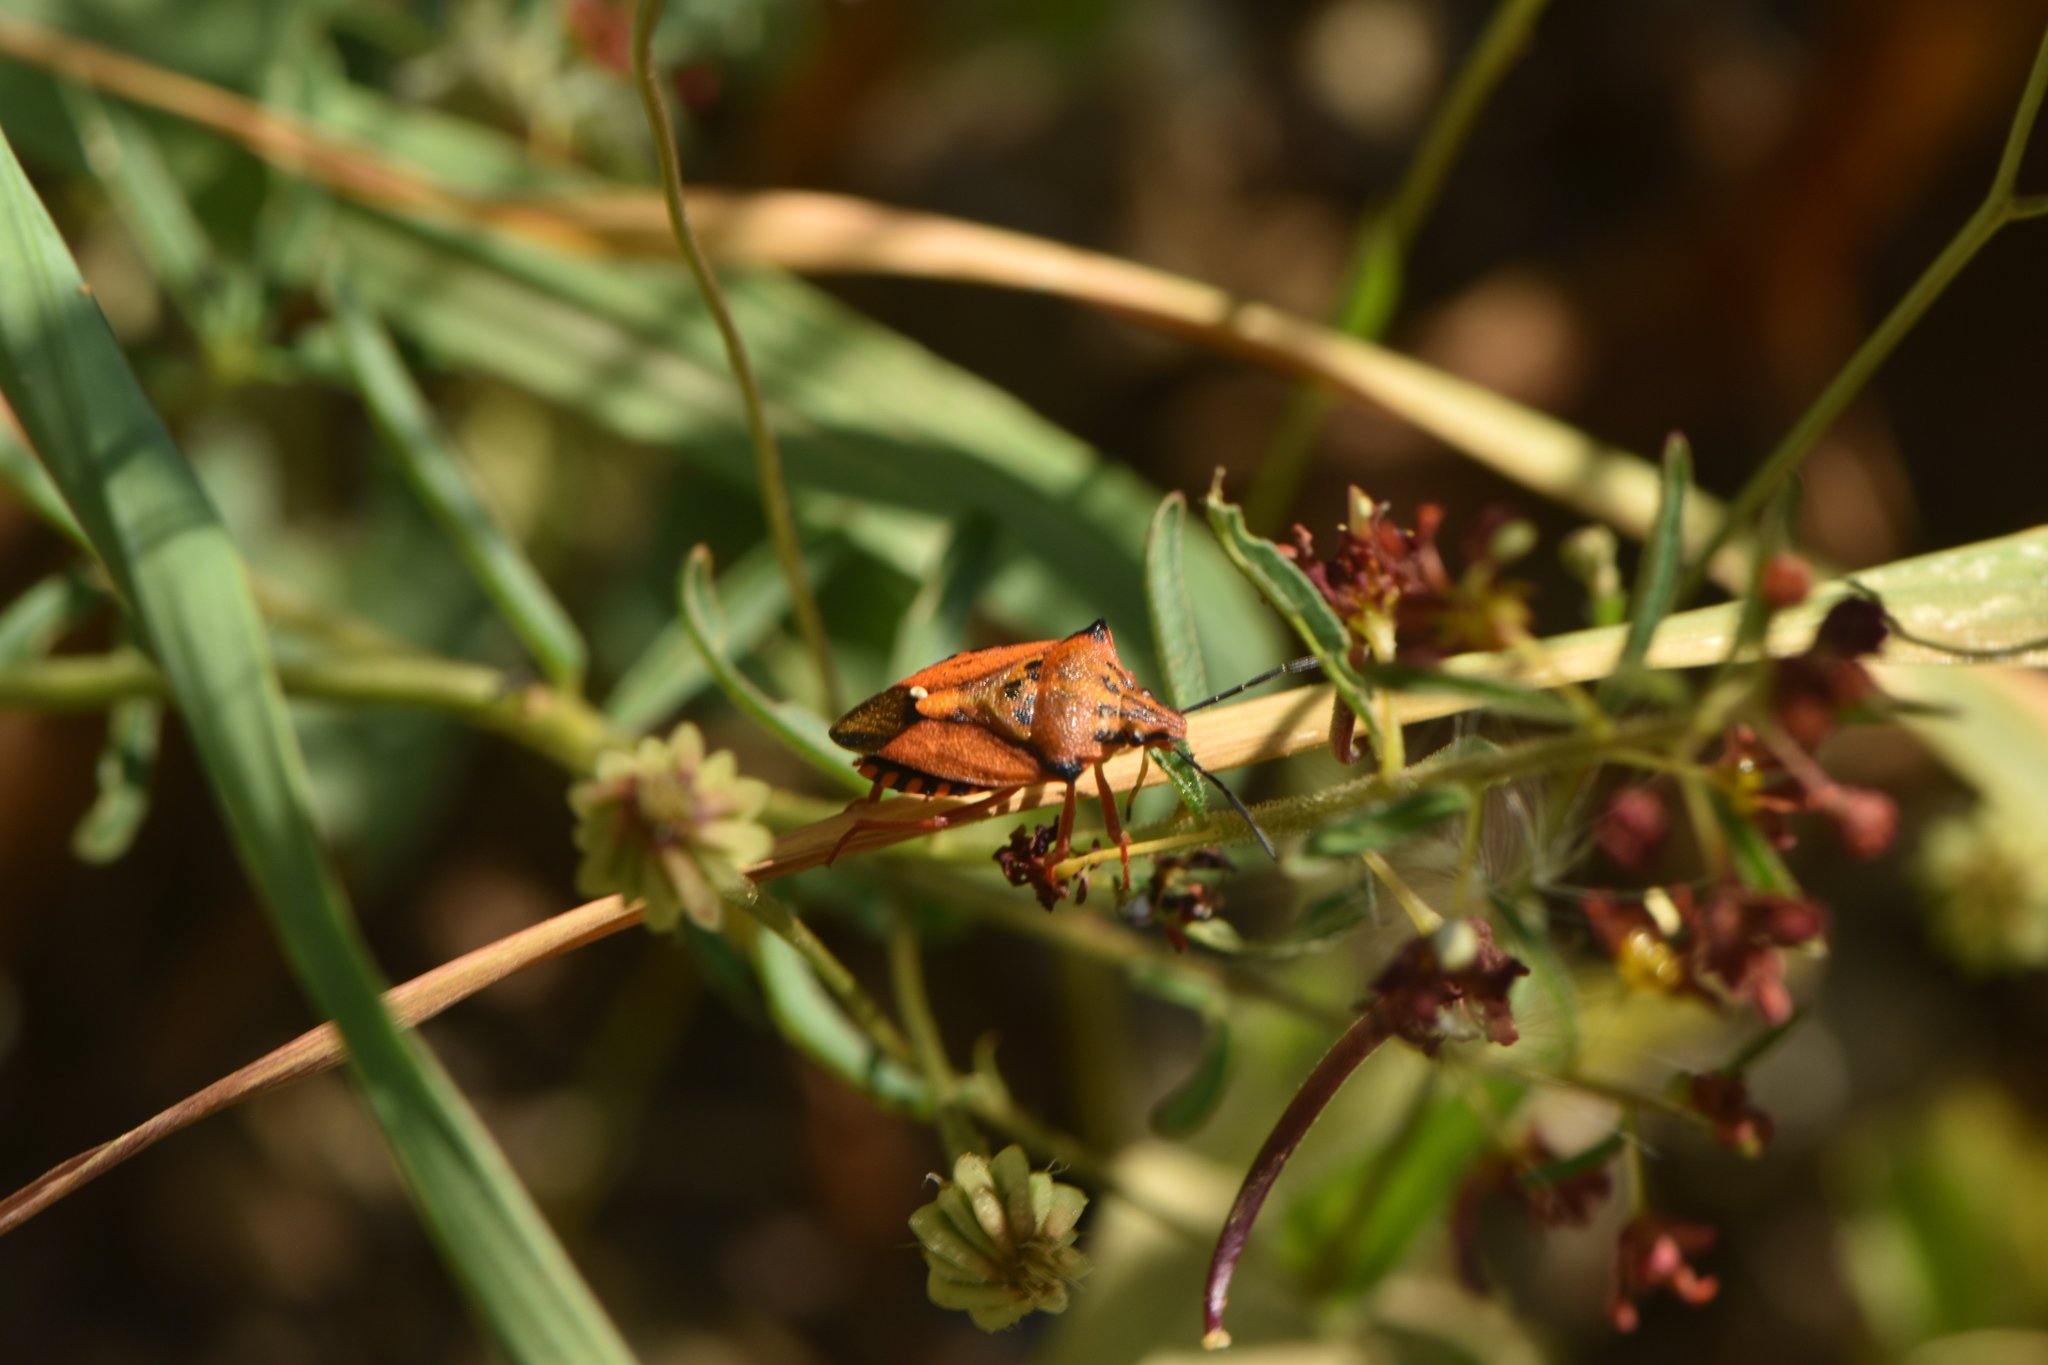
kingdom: Animalia
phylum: Arthropoda
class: Insecta
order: Hemiptera
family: Pentatomidae
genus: Carpocoris
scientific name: Carpocoris mediterraneus
